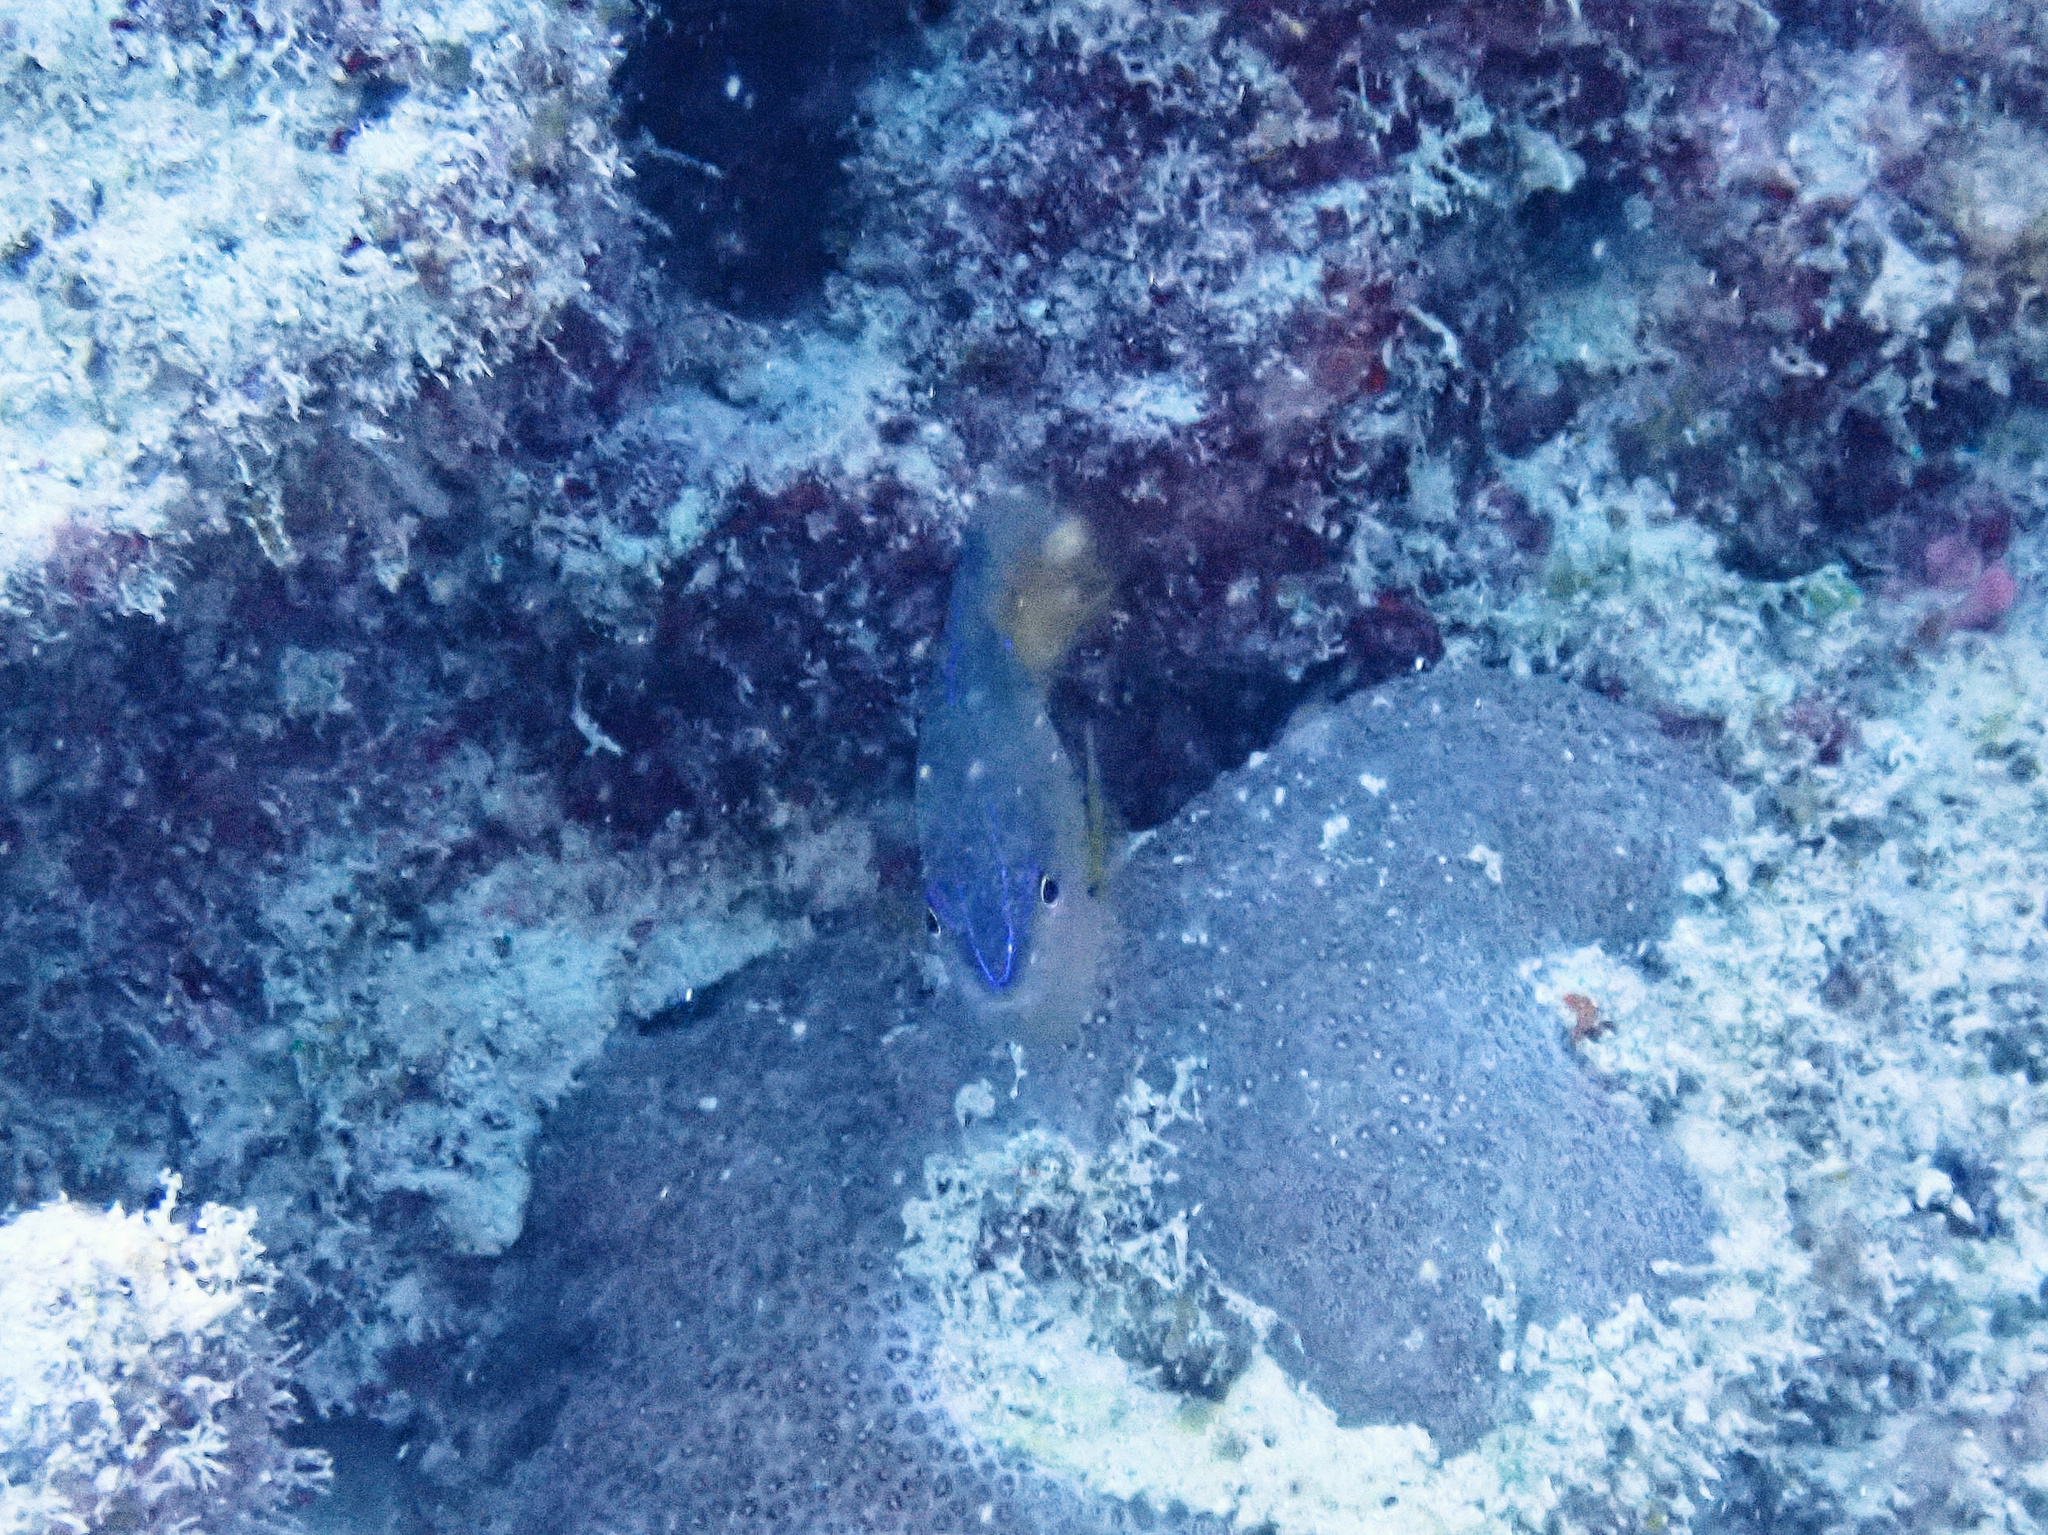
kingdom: Animalia
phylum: Chordata
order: Perciformes
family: Pomacentridae
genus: Pomacentrus
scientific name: Pomacentrus grammorhynchus
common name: Blue-spot damsel
